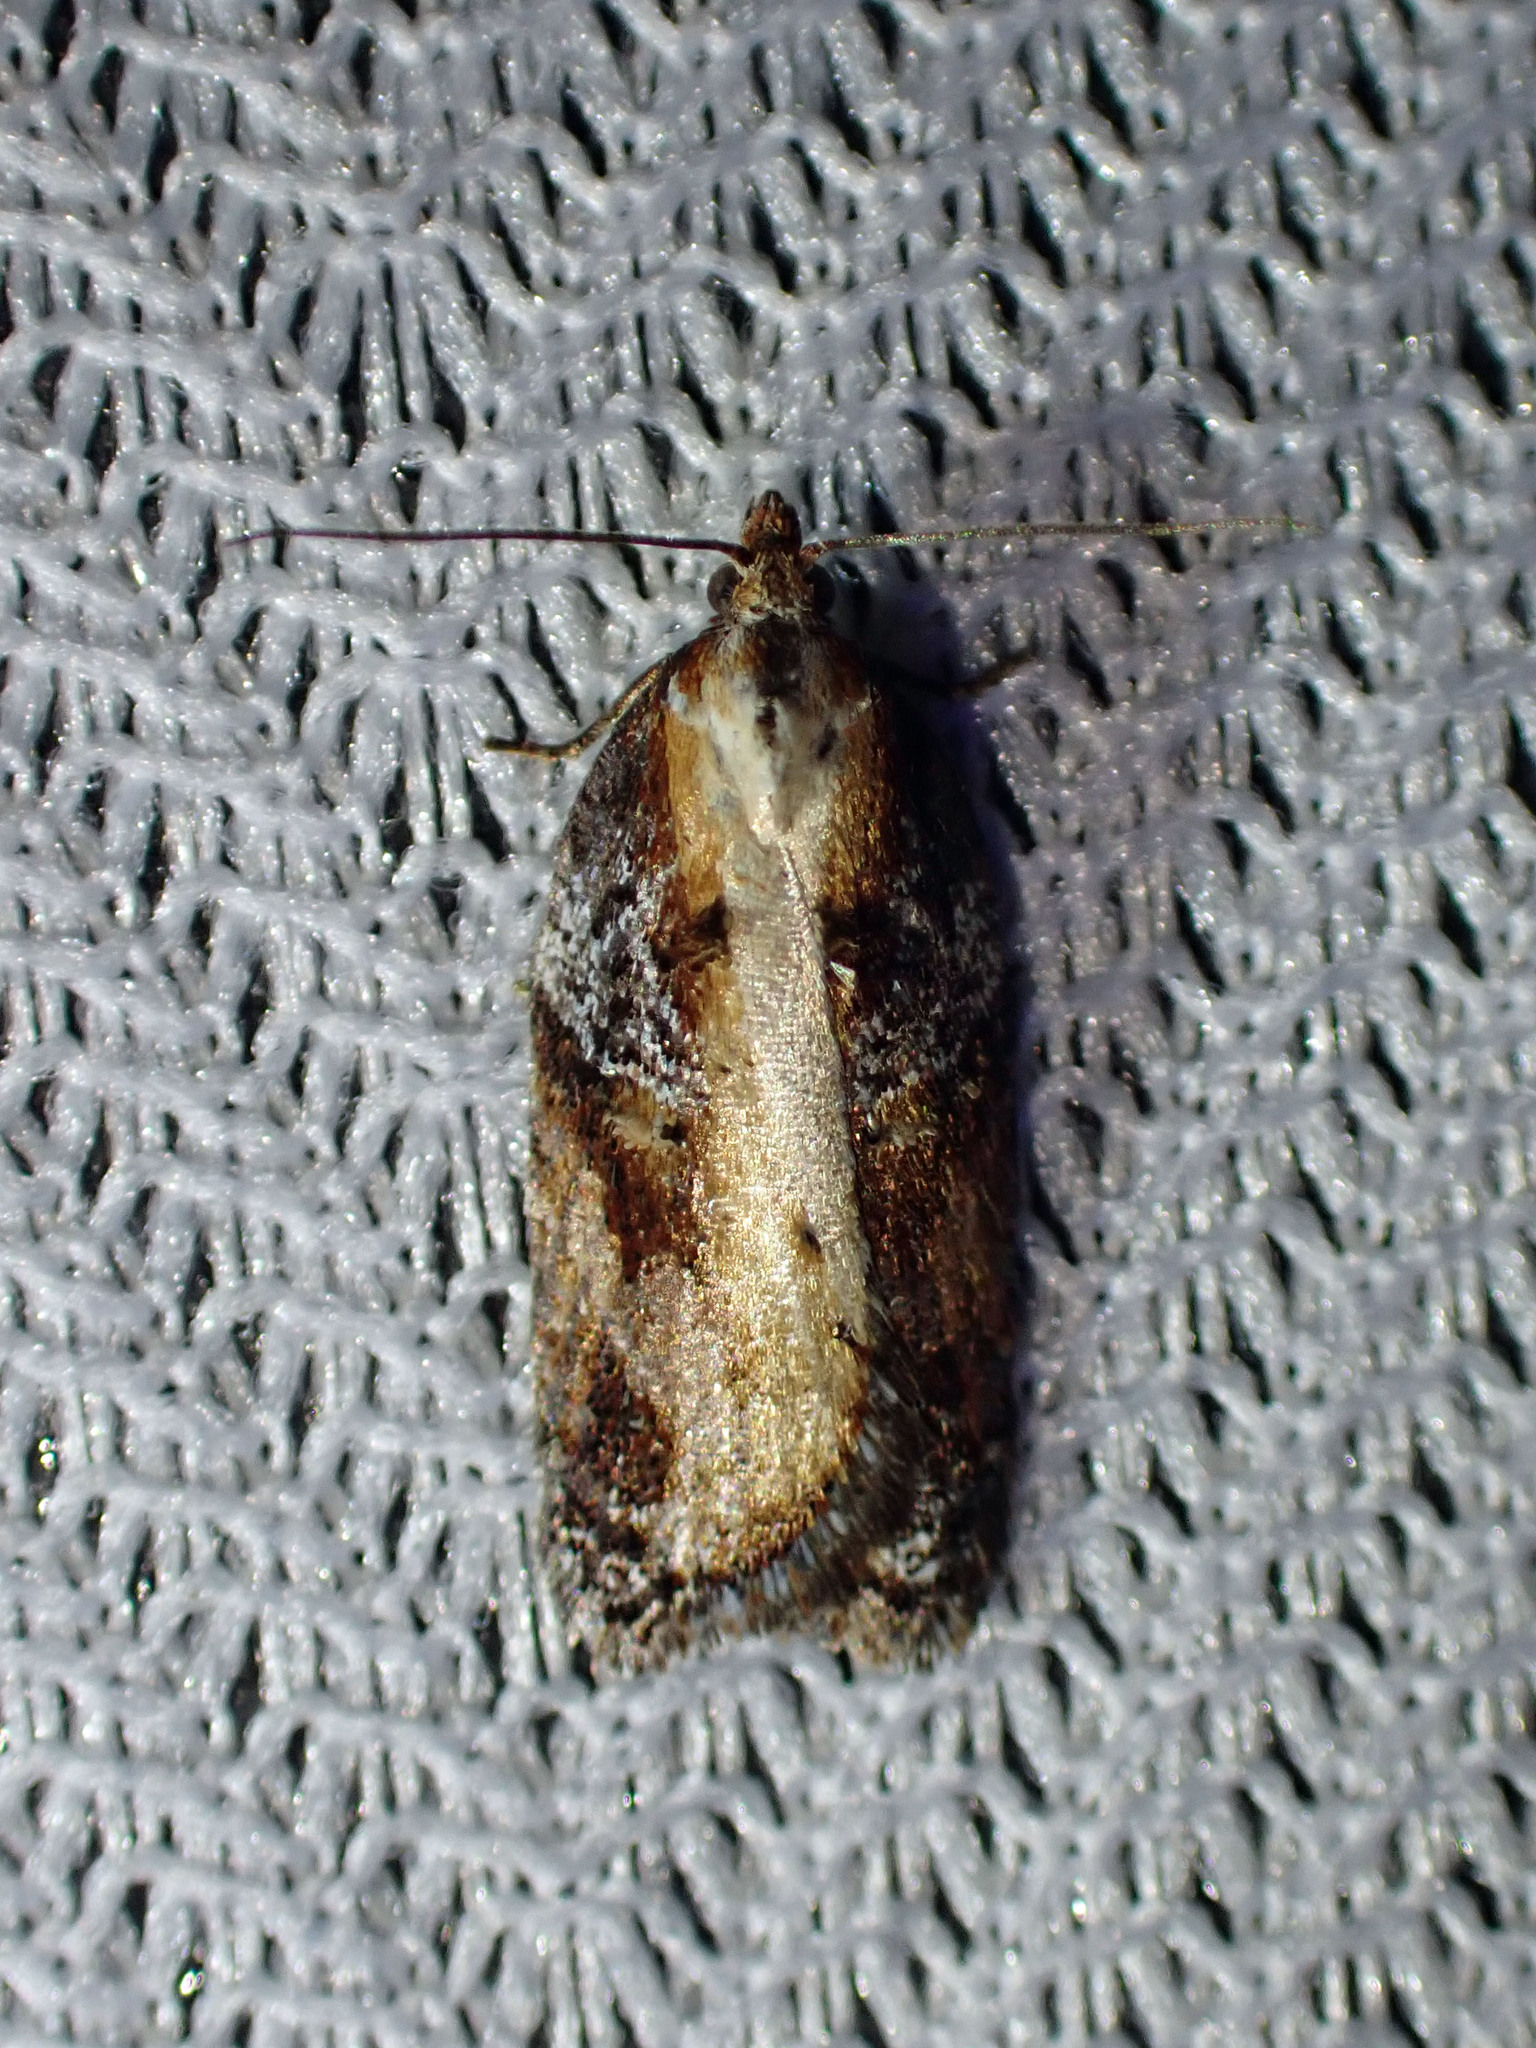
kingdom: Animalia
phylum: Arthropoda
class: Insecta
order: Lepidoptera
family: Tortricidae
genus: Acleris
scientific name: Acleris robinsoniana
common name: Robinson's acleris moth
